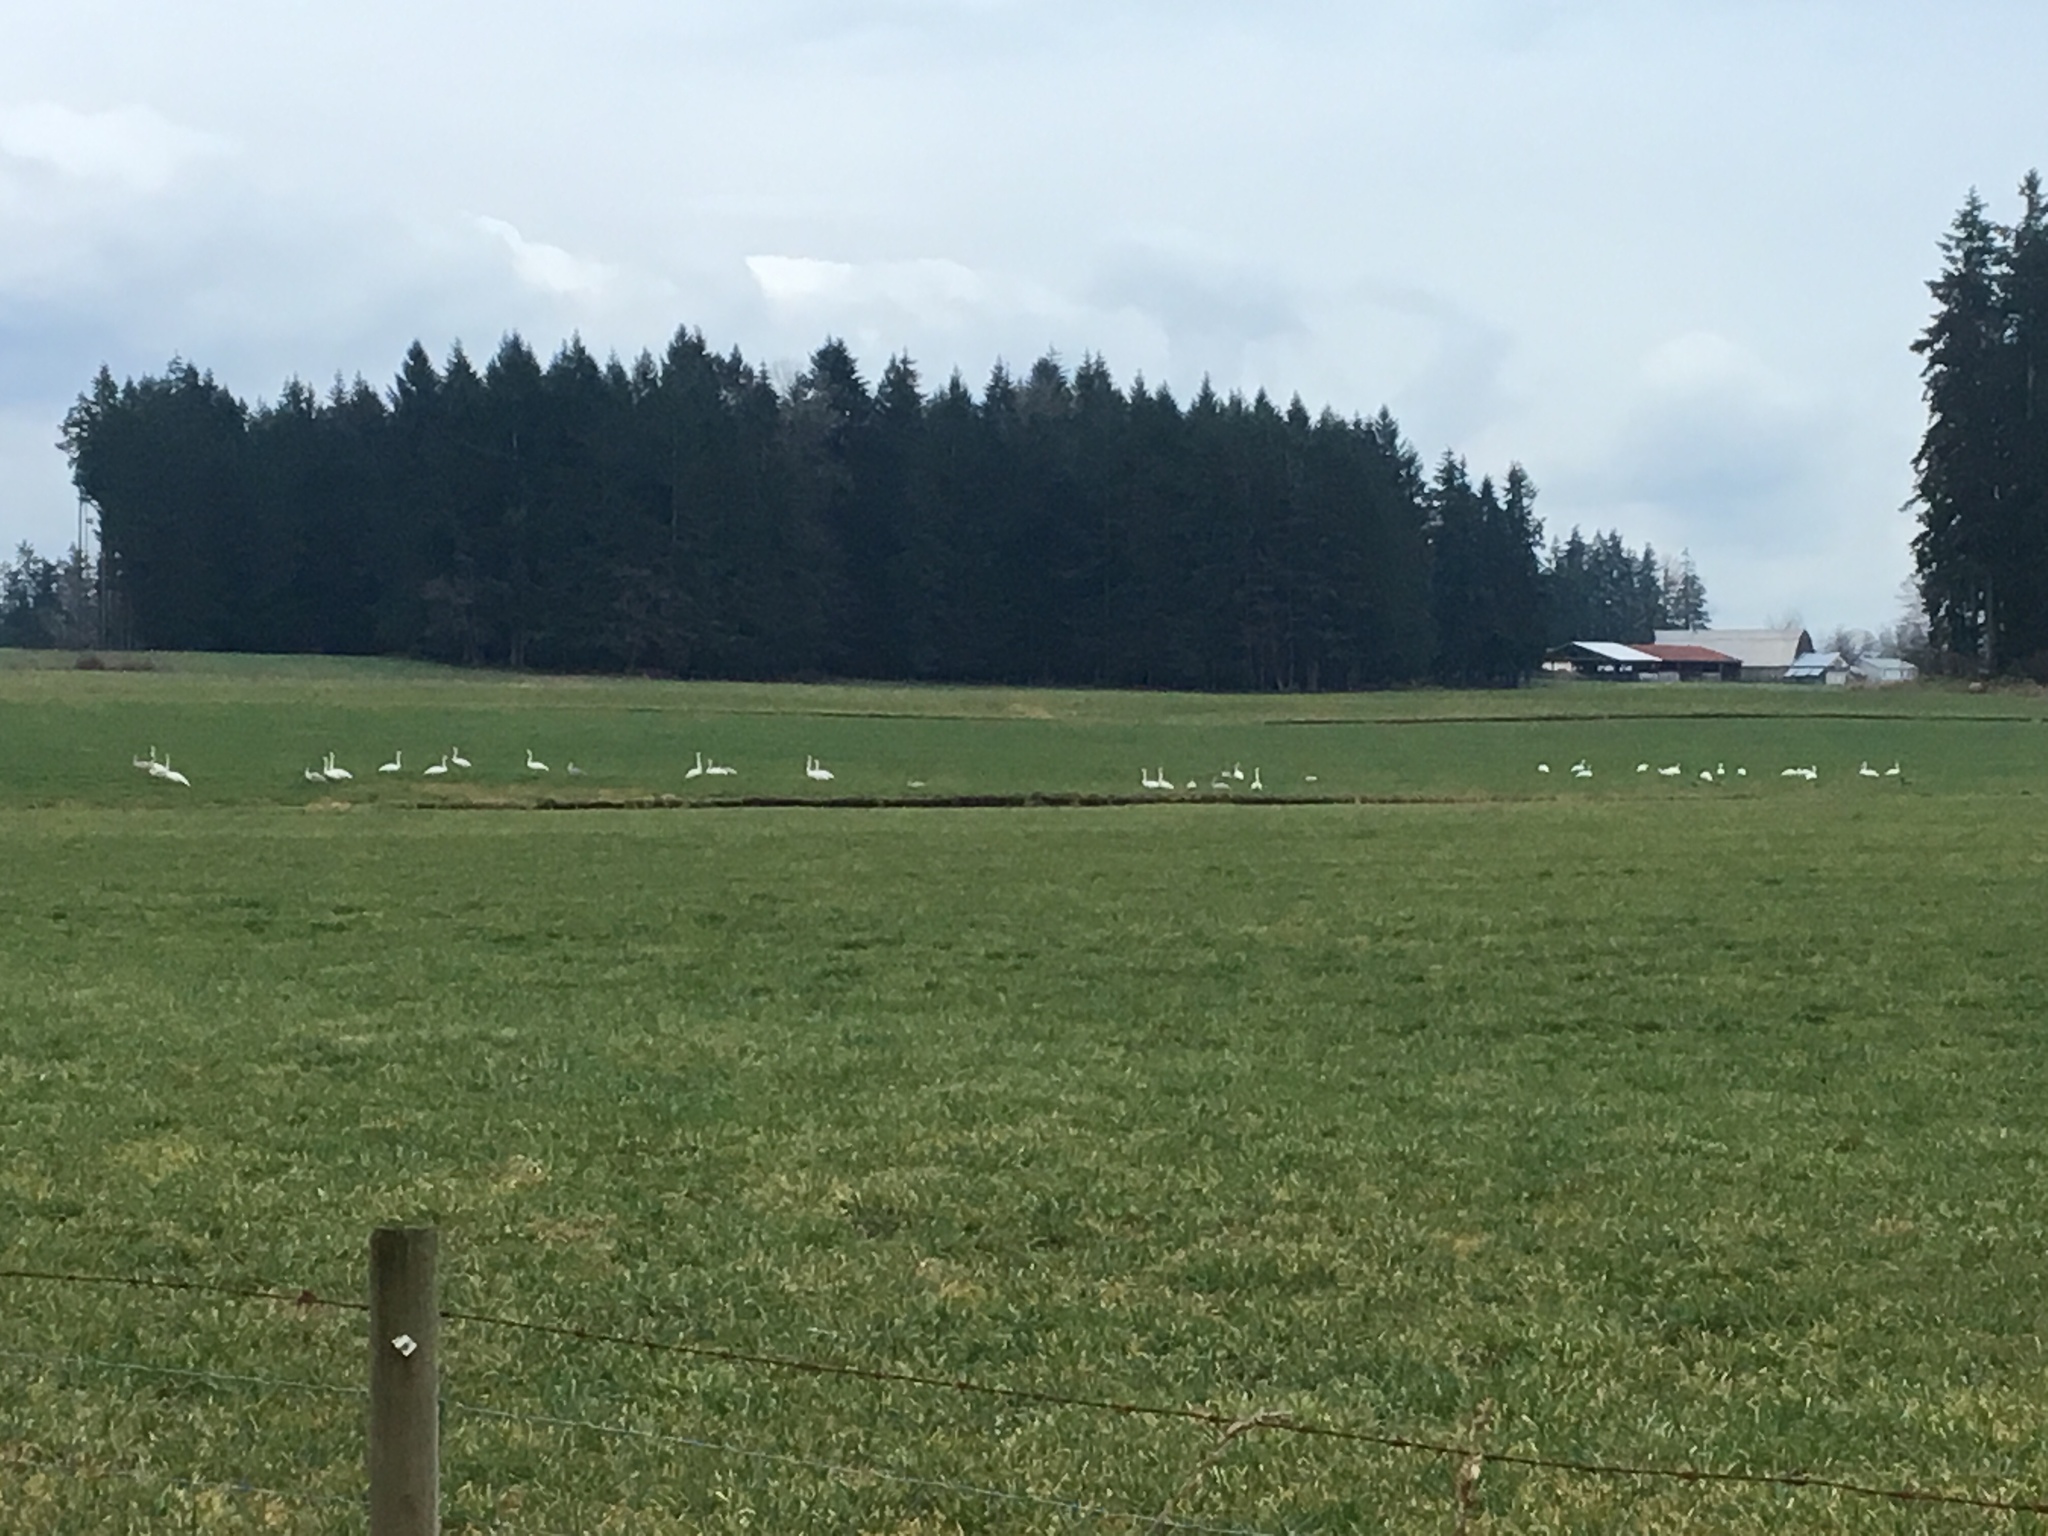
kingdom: Animalia
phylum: Chordata
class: Aves
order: Anseriformes
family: Anatidae
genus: Cygnus
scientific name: Cygnus buccinator
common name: Trumpeter swan
